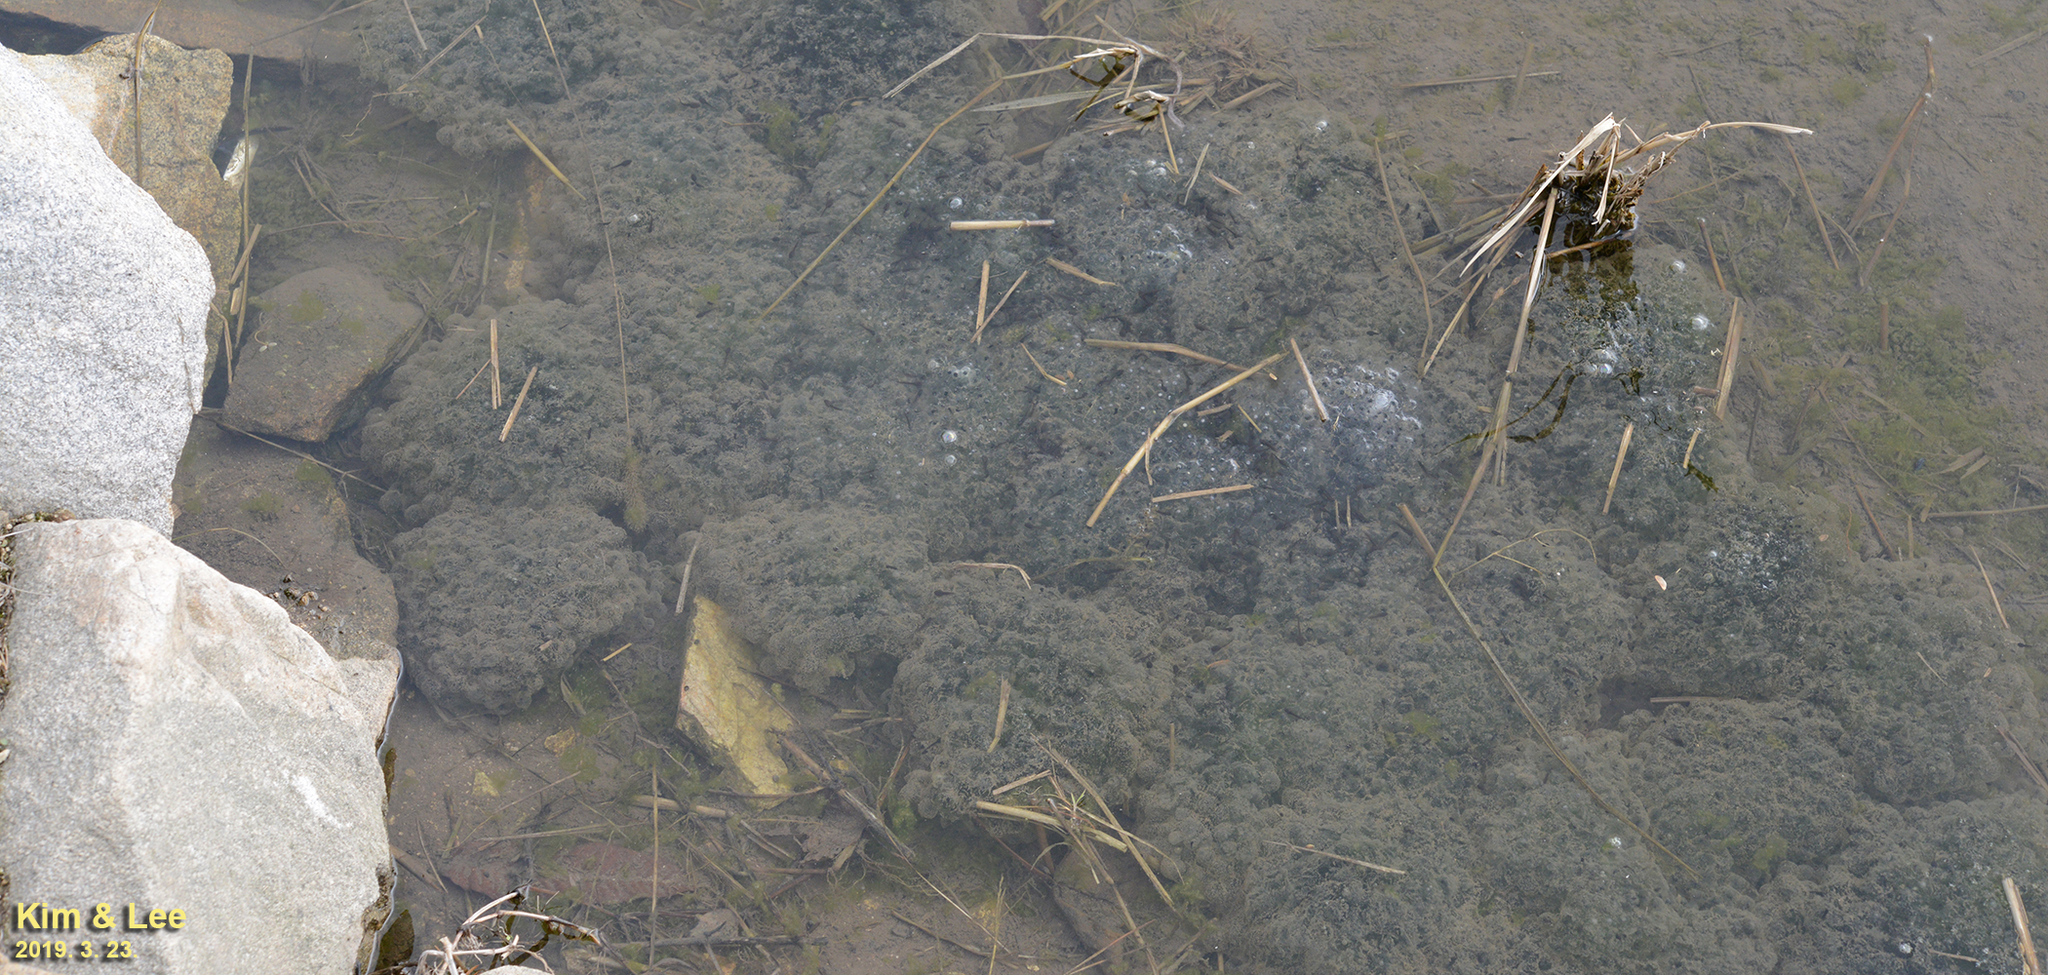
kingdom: Animalia
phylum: Chordata
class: Amphibia
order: Anura
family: Ranidae
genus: Rana
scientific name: Rana uenoi
